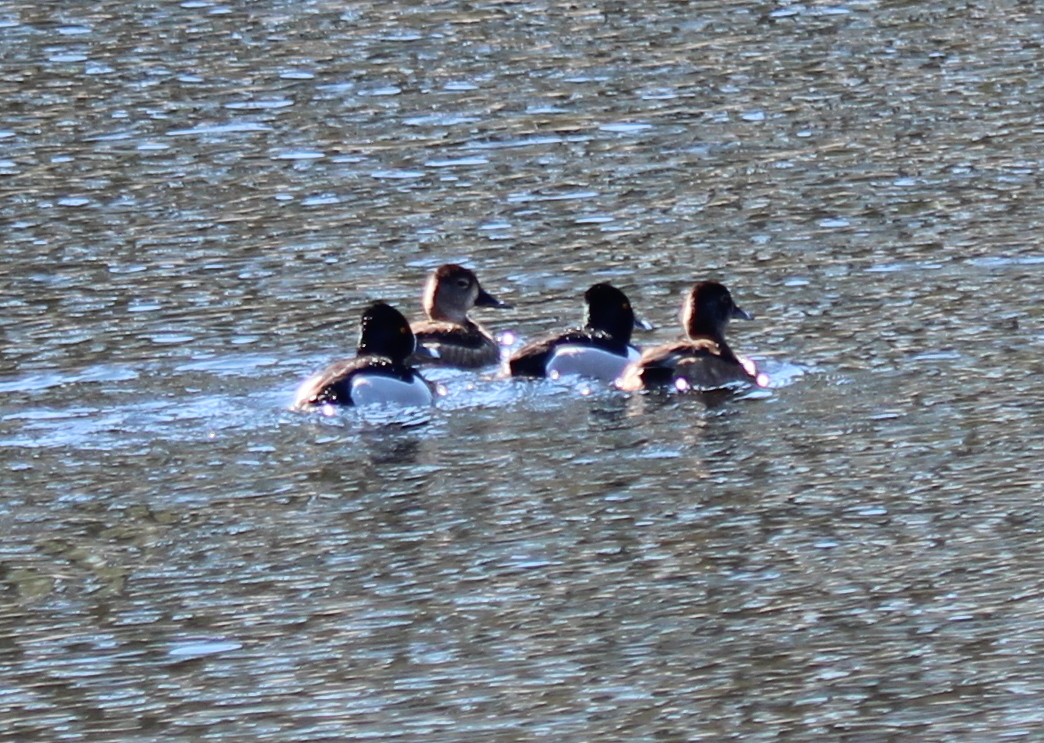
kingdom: Animalia
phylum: Chordata
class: Aves
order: Anseriformes
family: Anatidae
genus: Aythya
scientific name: Aythya collaris
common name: Ring-necked duck
